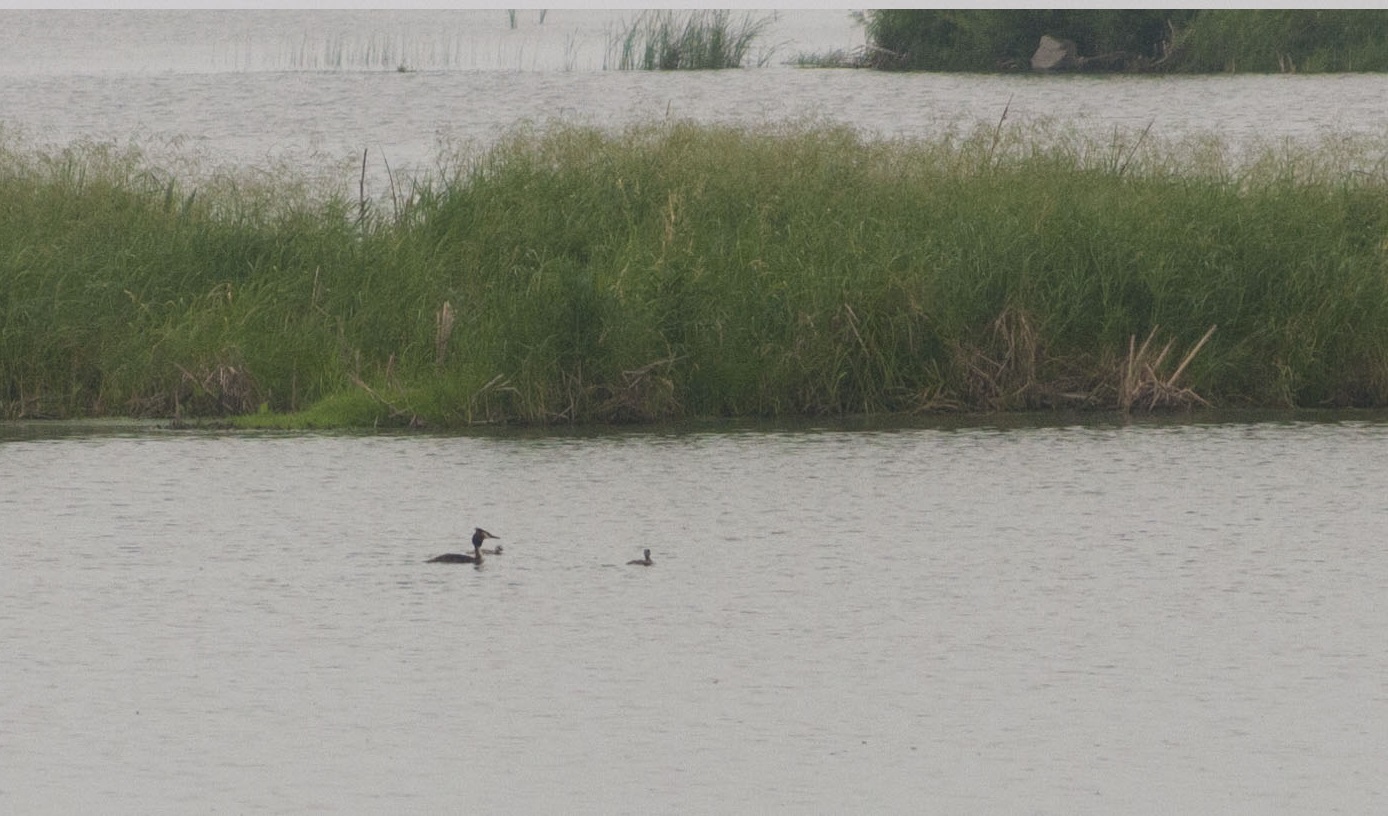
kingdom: Animalia
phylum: Chordata
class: Aves
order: Podicipediformes
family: Podicipedidae
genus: Podiceps
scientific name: Podiceps cristatus
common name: Great crested grebe
